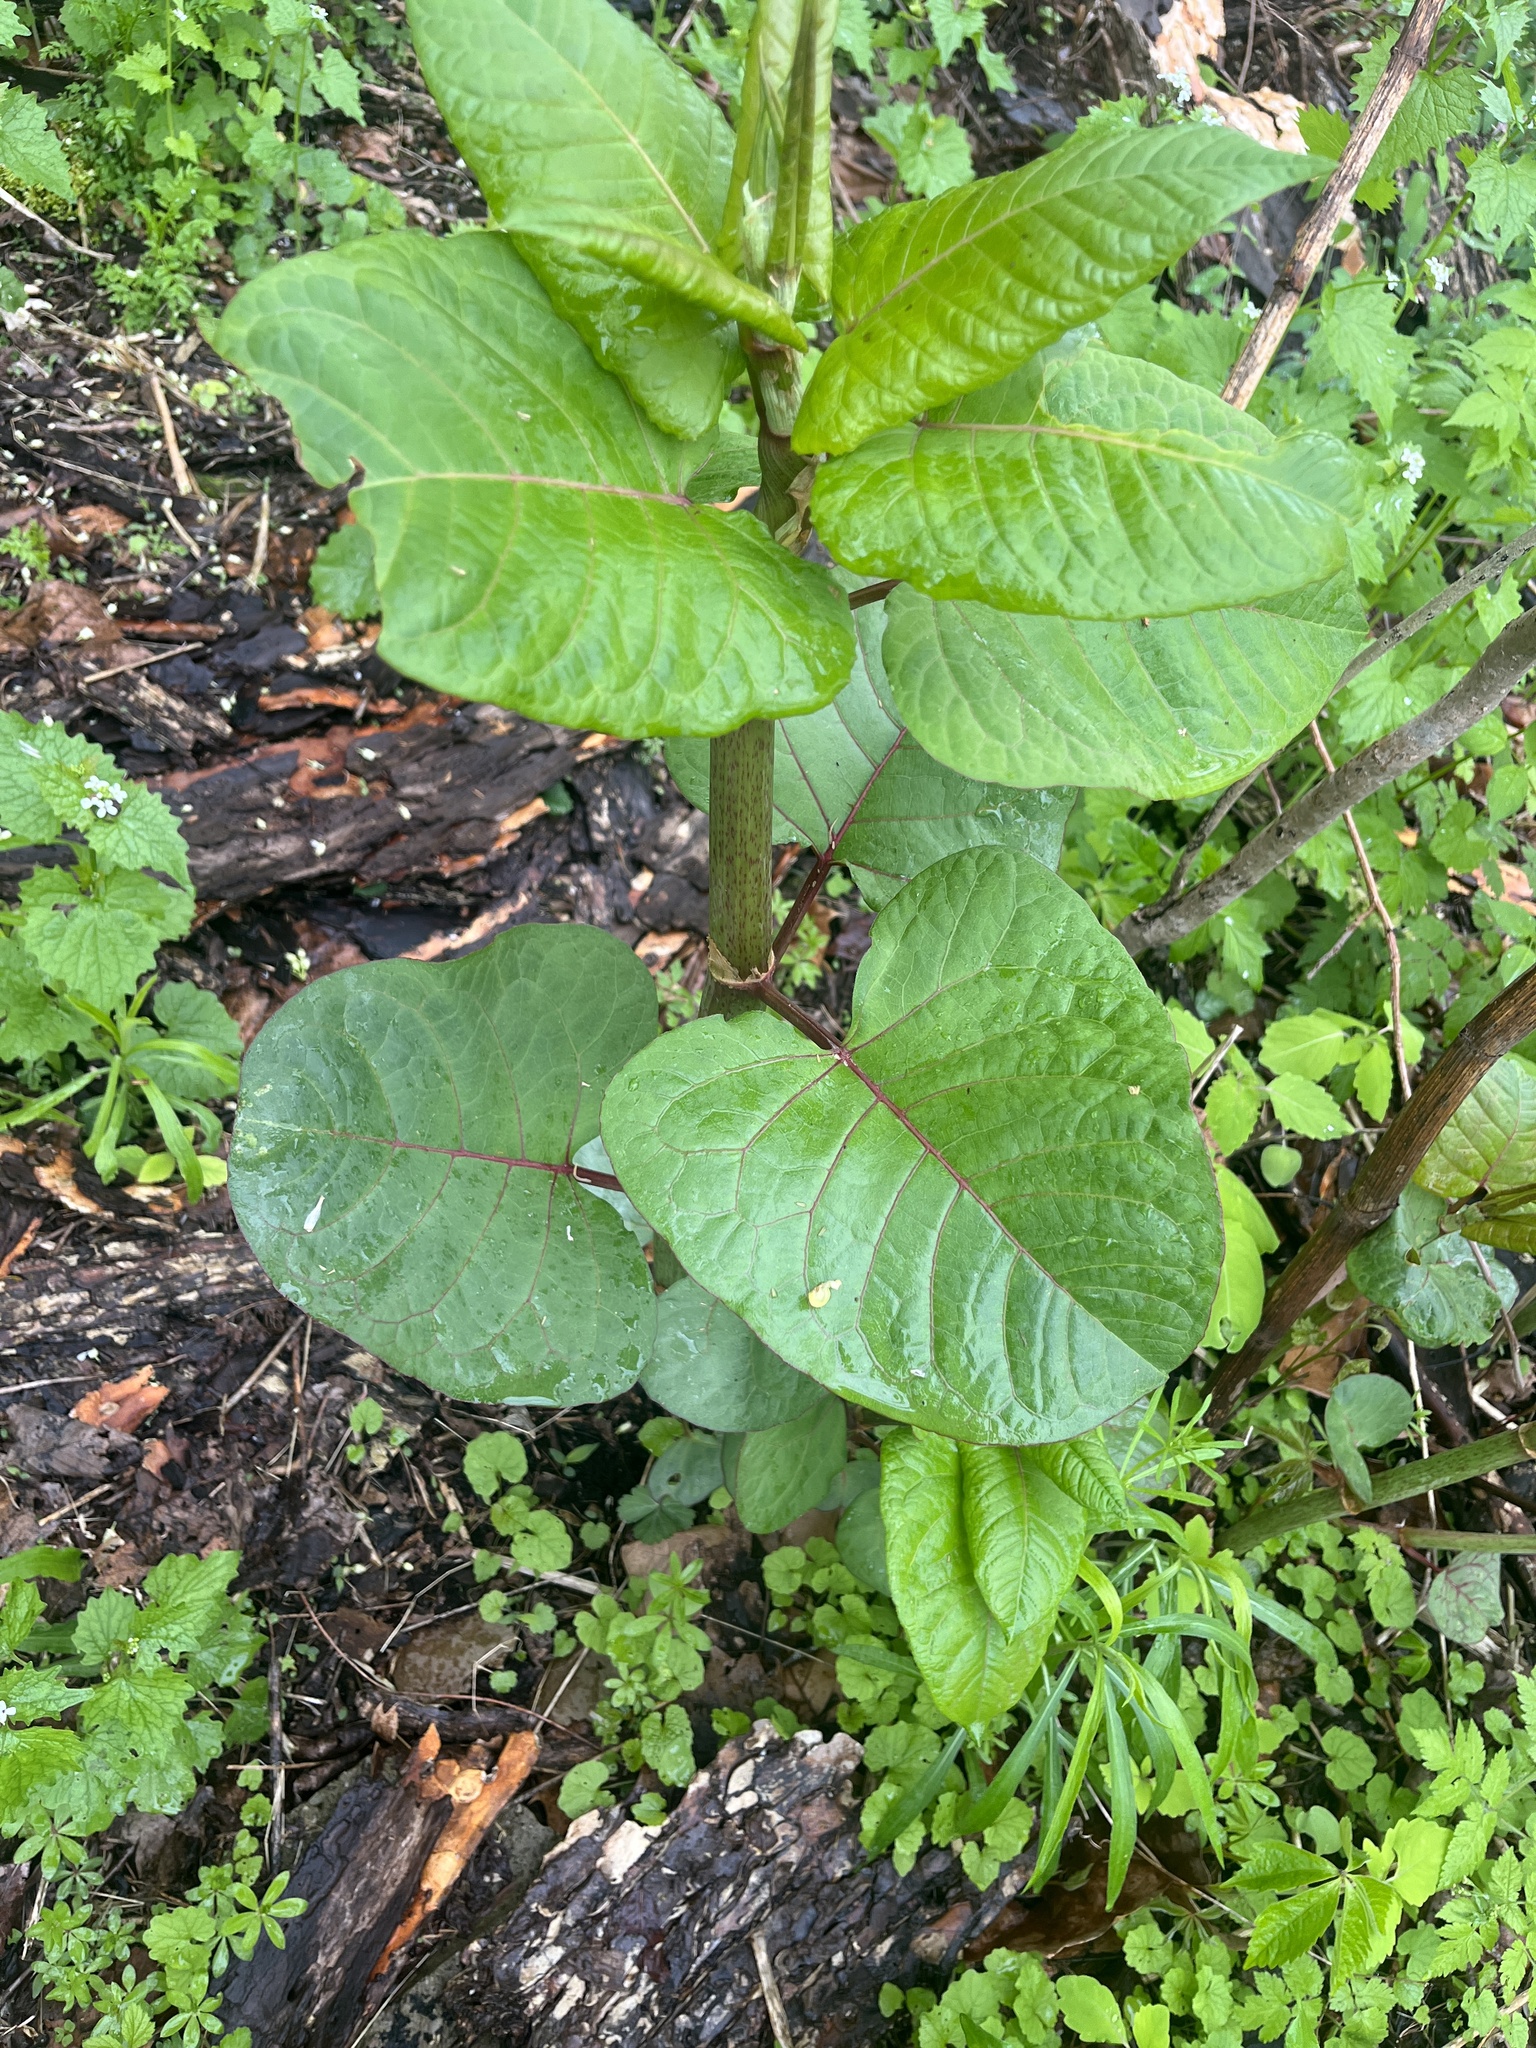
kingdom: Plantae
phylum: Tracheophyta
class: Magnoliopsida
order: Caryophyllales
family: Polygonaceae
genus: Reynoutria
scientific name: Reynoutria sachalinensis
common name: Giant knotweed
